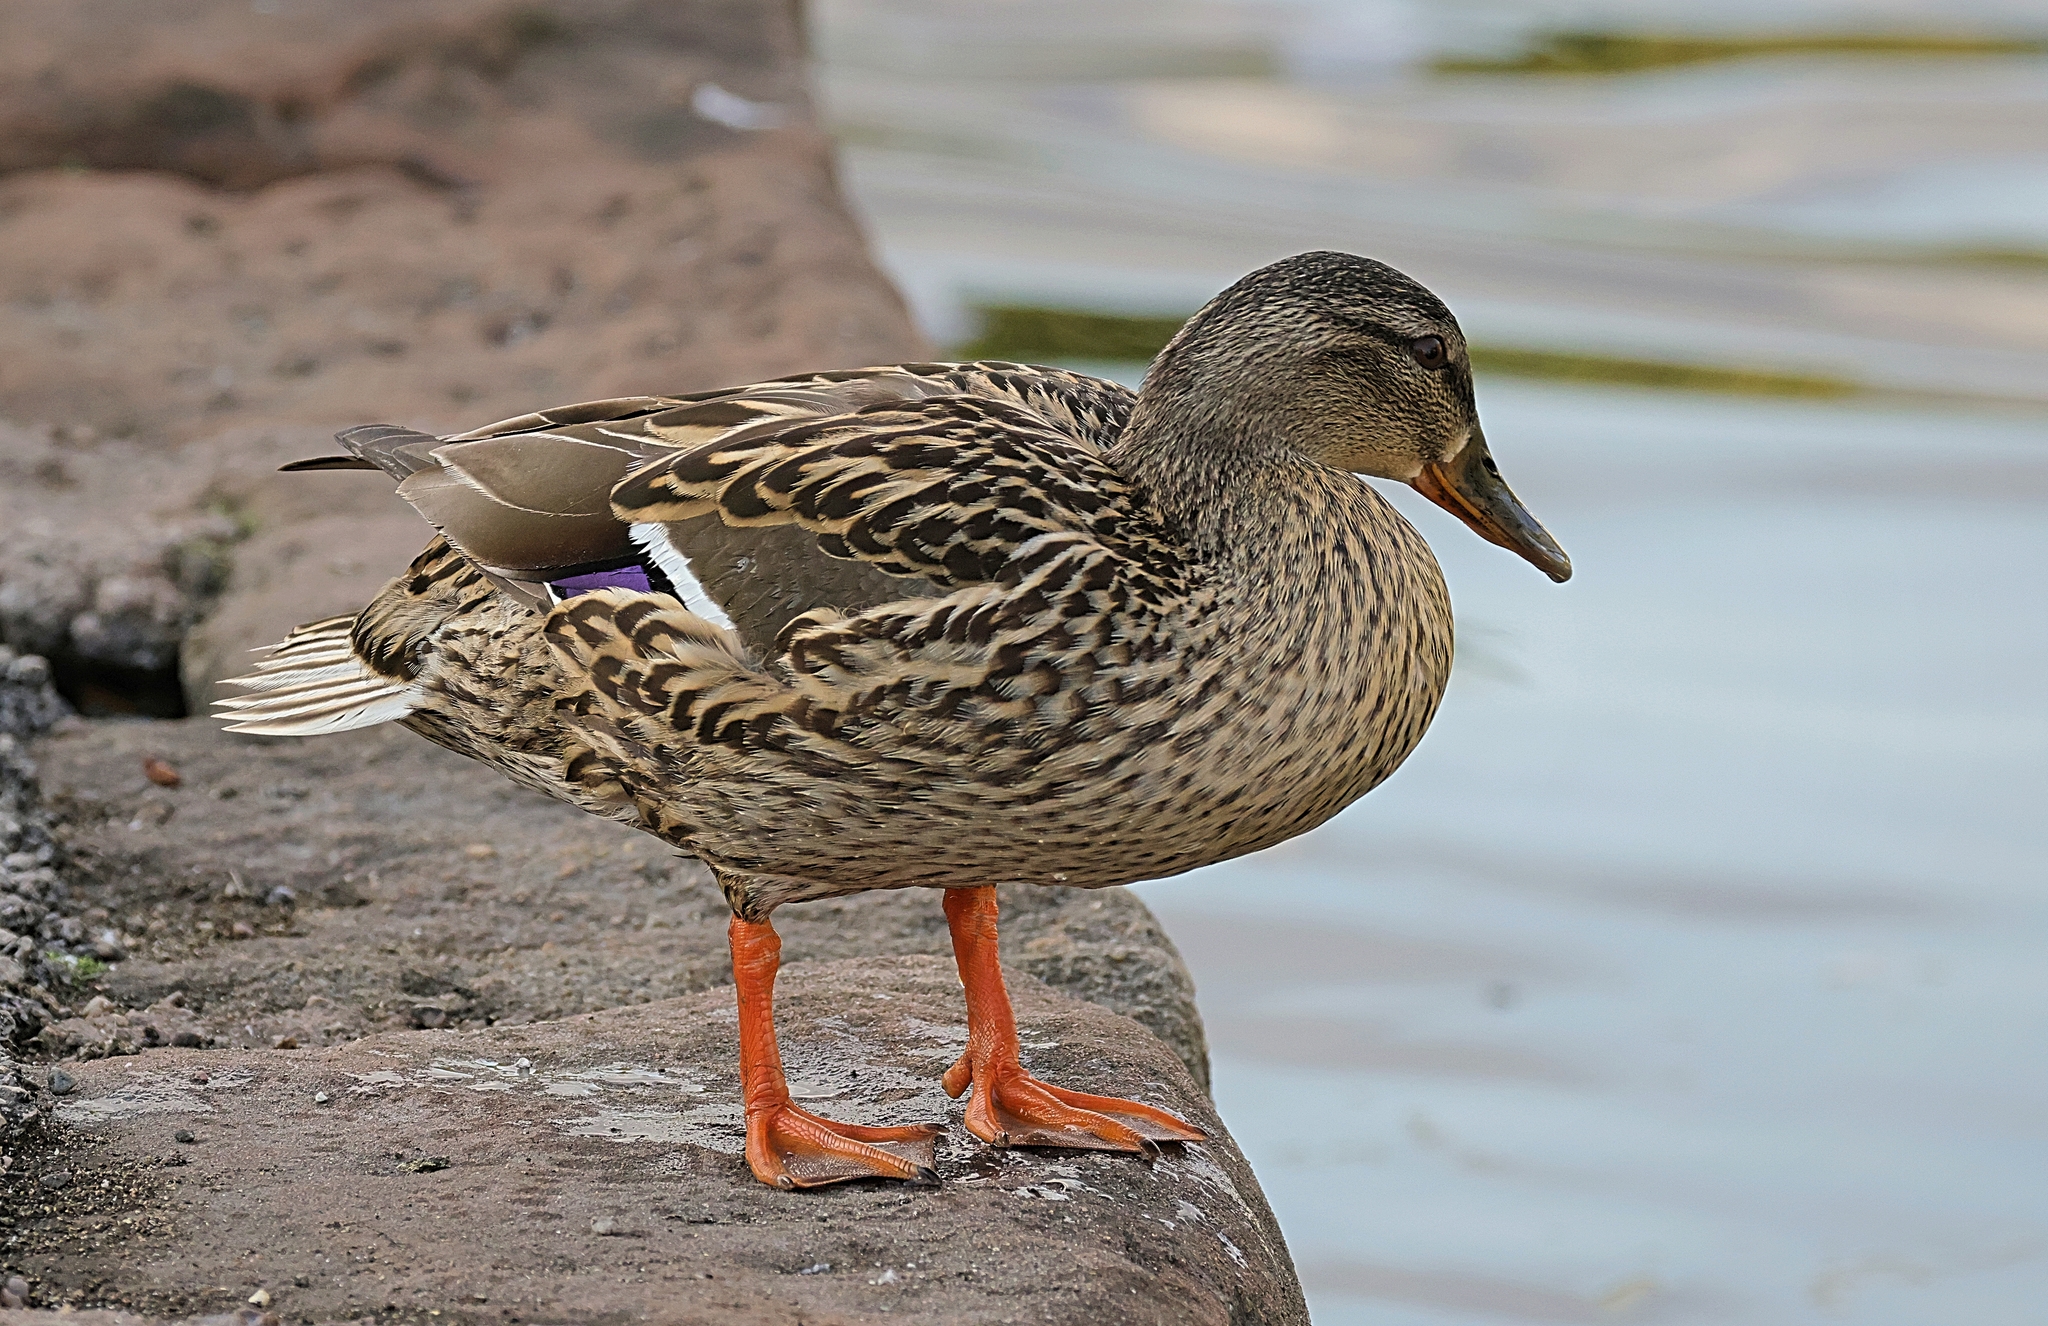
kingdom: Animalia
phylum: Chordata
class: Aves
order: Anseriformes
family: Anatidae
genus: Anas
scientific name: Anas platyrhynchos
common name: Mallard
